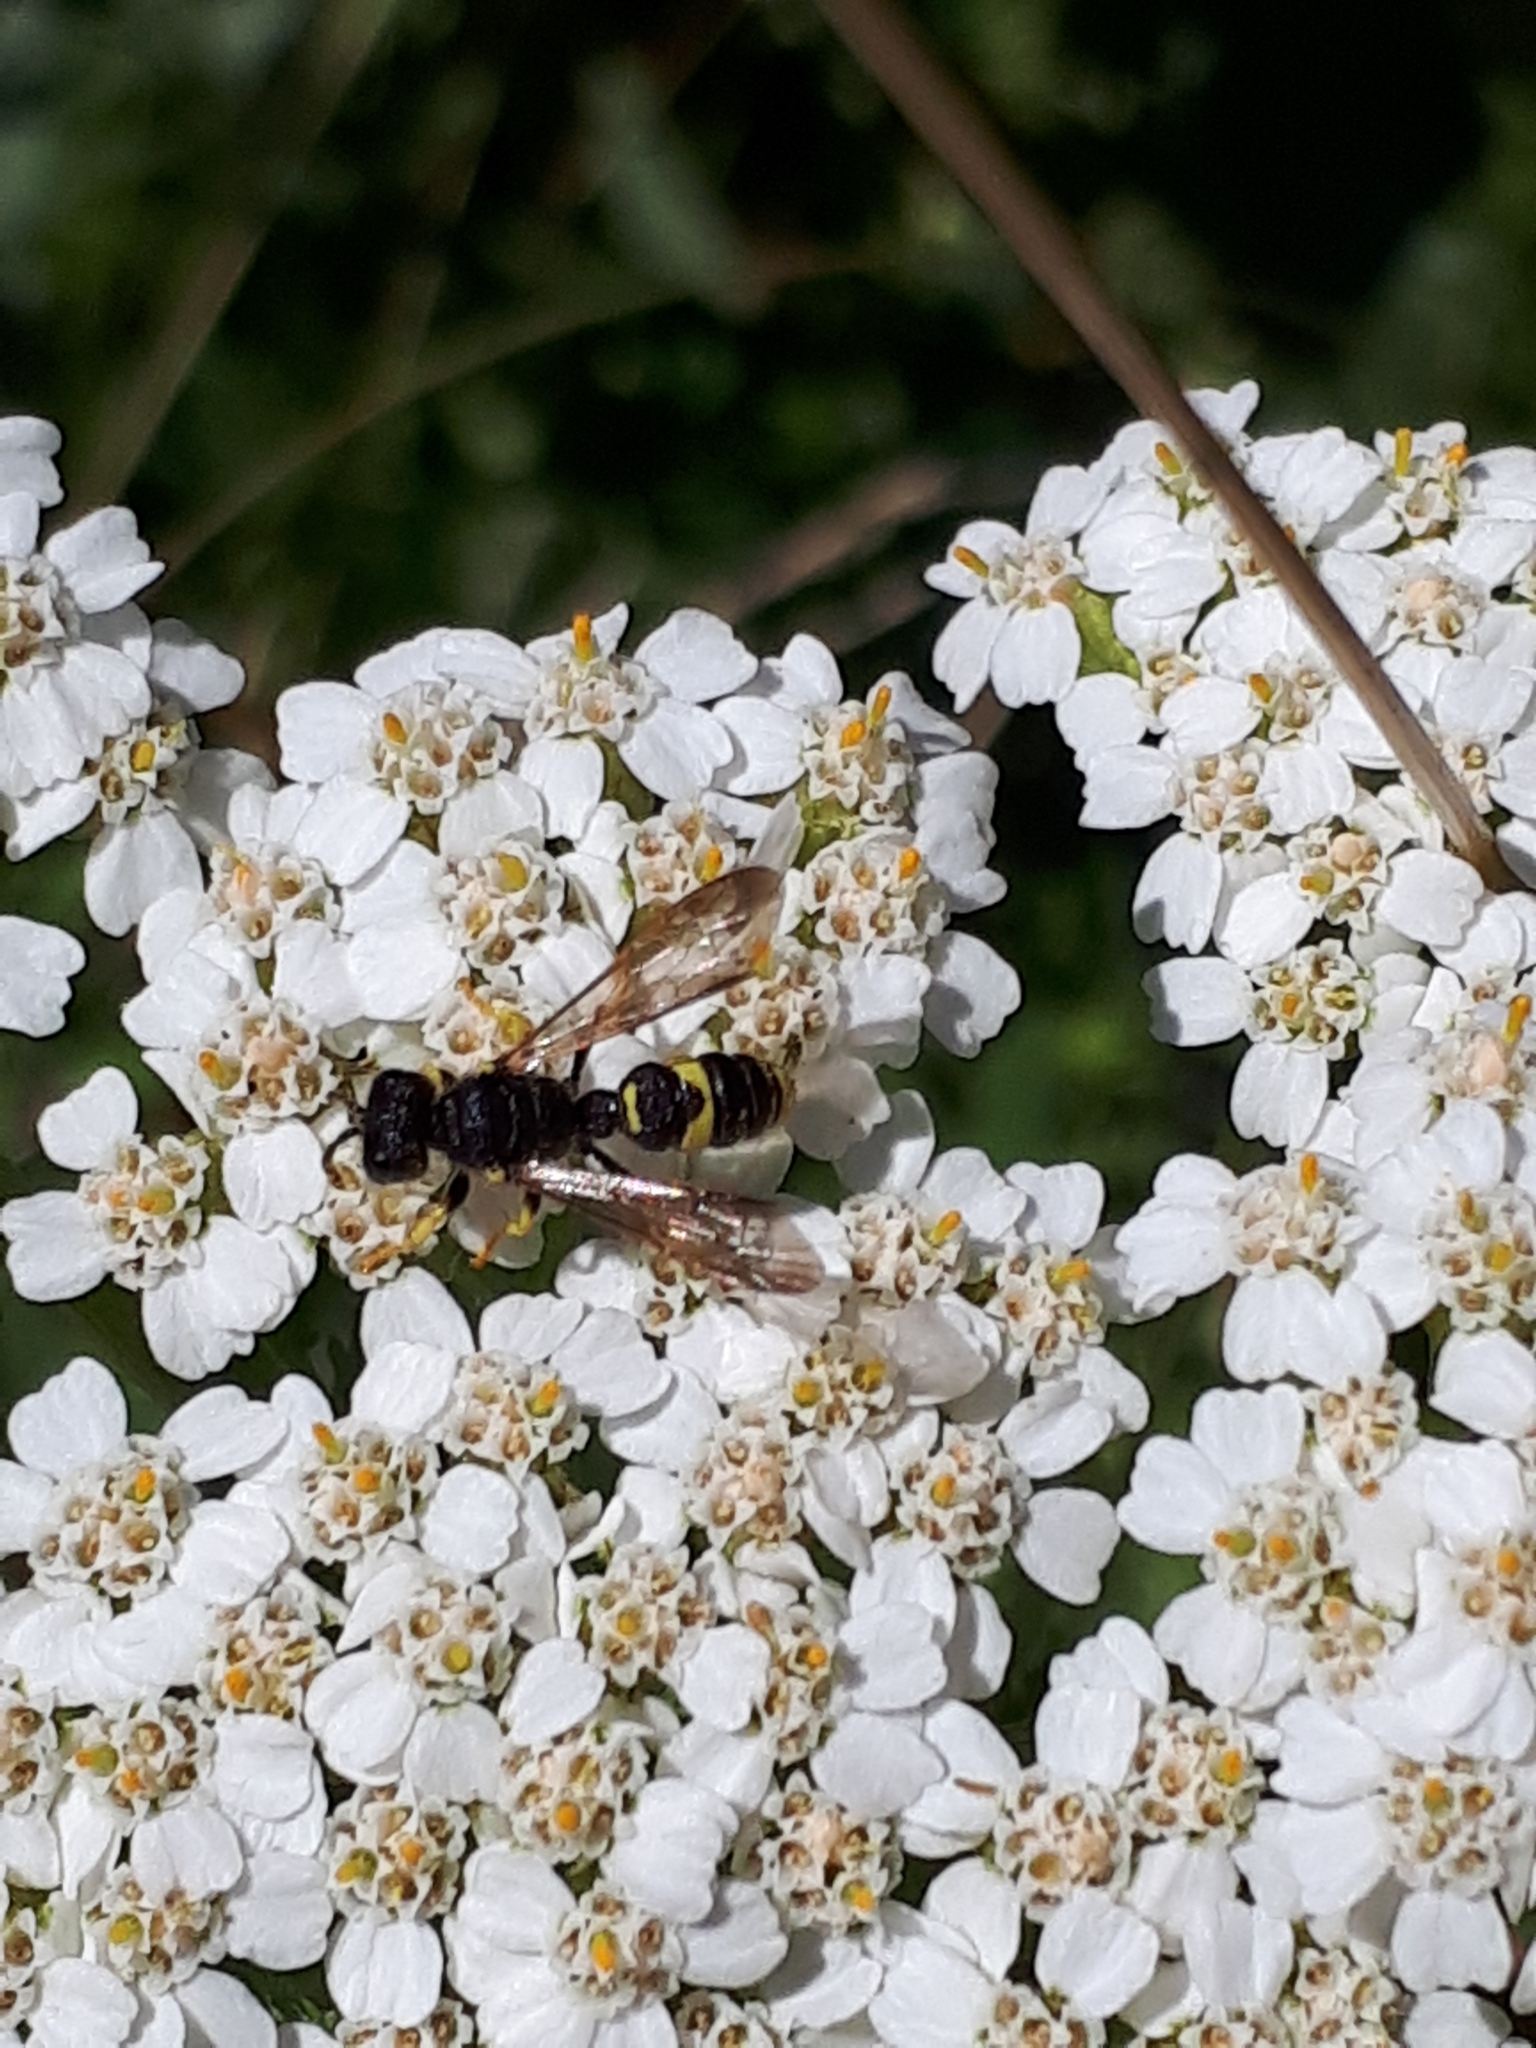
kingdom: Animalia
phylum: Arthropoda
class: Insecta
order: Hymenoptera
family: Crabronidae
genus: Cerceris
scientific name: Cerceris rybyensis
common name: Ornate tailed digger wasp
